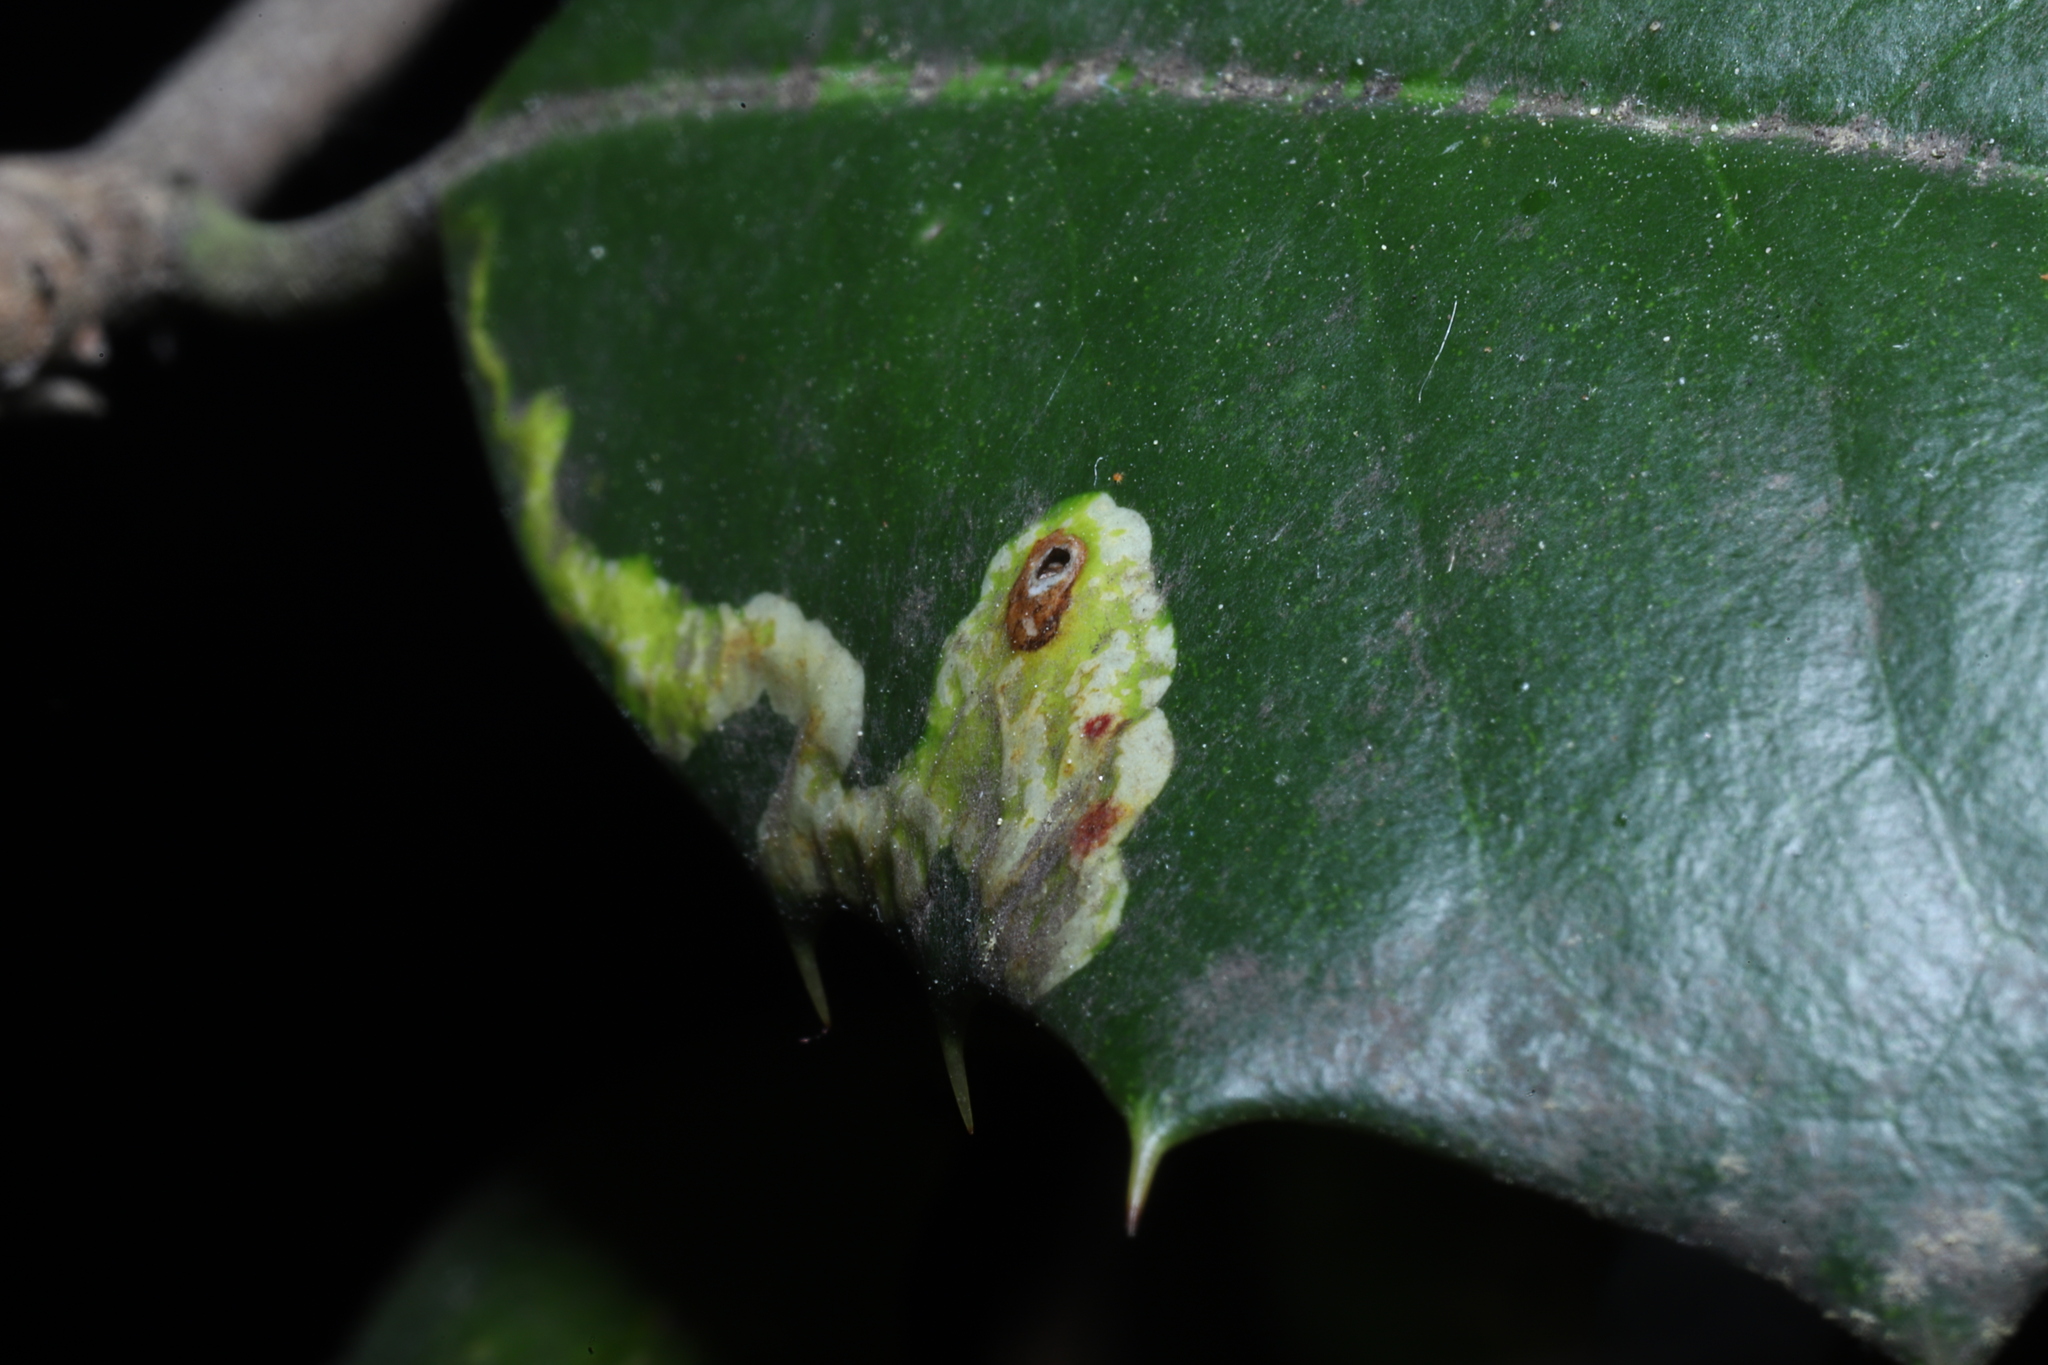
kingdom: Animalia
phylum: Arthropoda
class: Insecta
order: Diptera
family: Agromyzidae
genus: Phytomyza
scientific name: Phytomyza ilicicola
